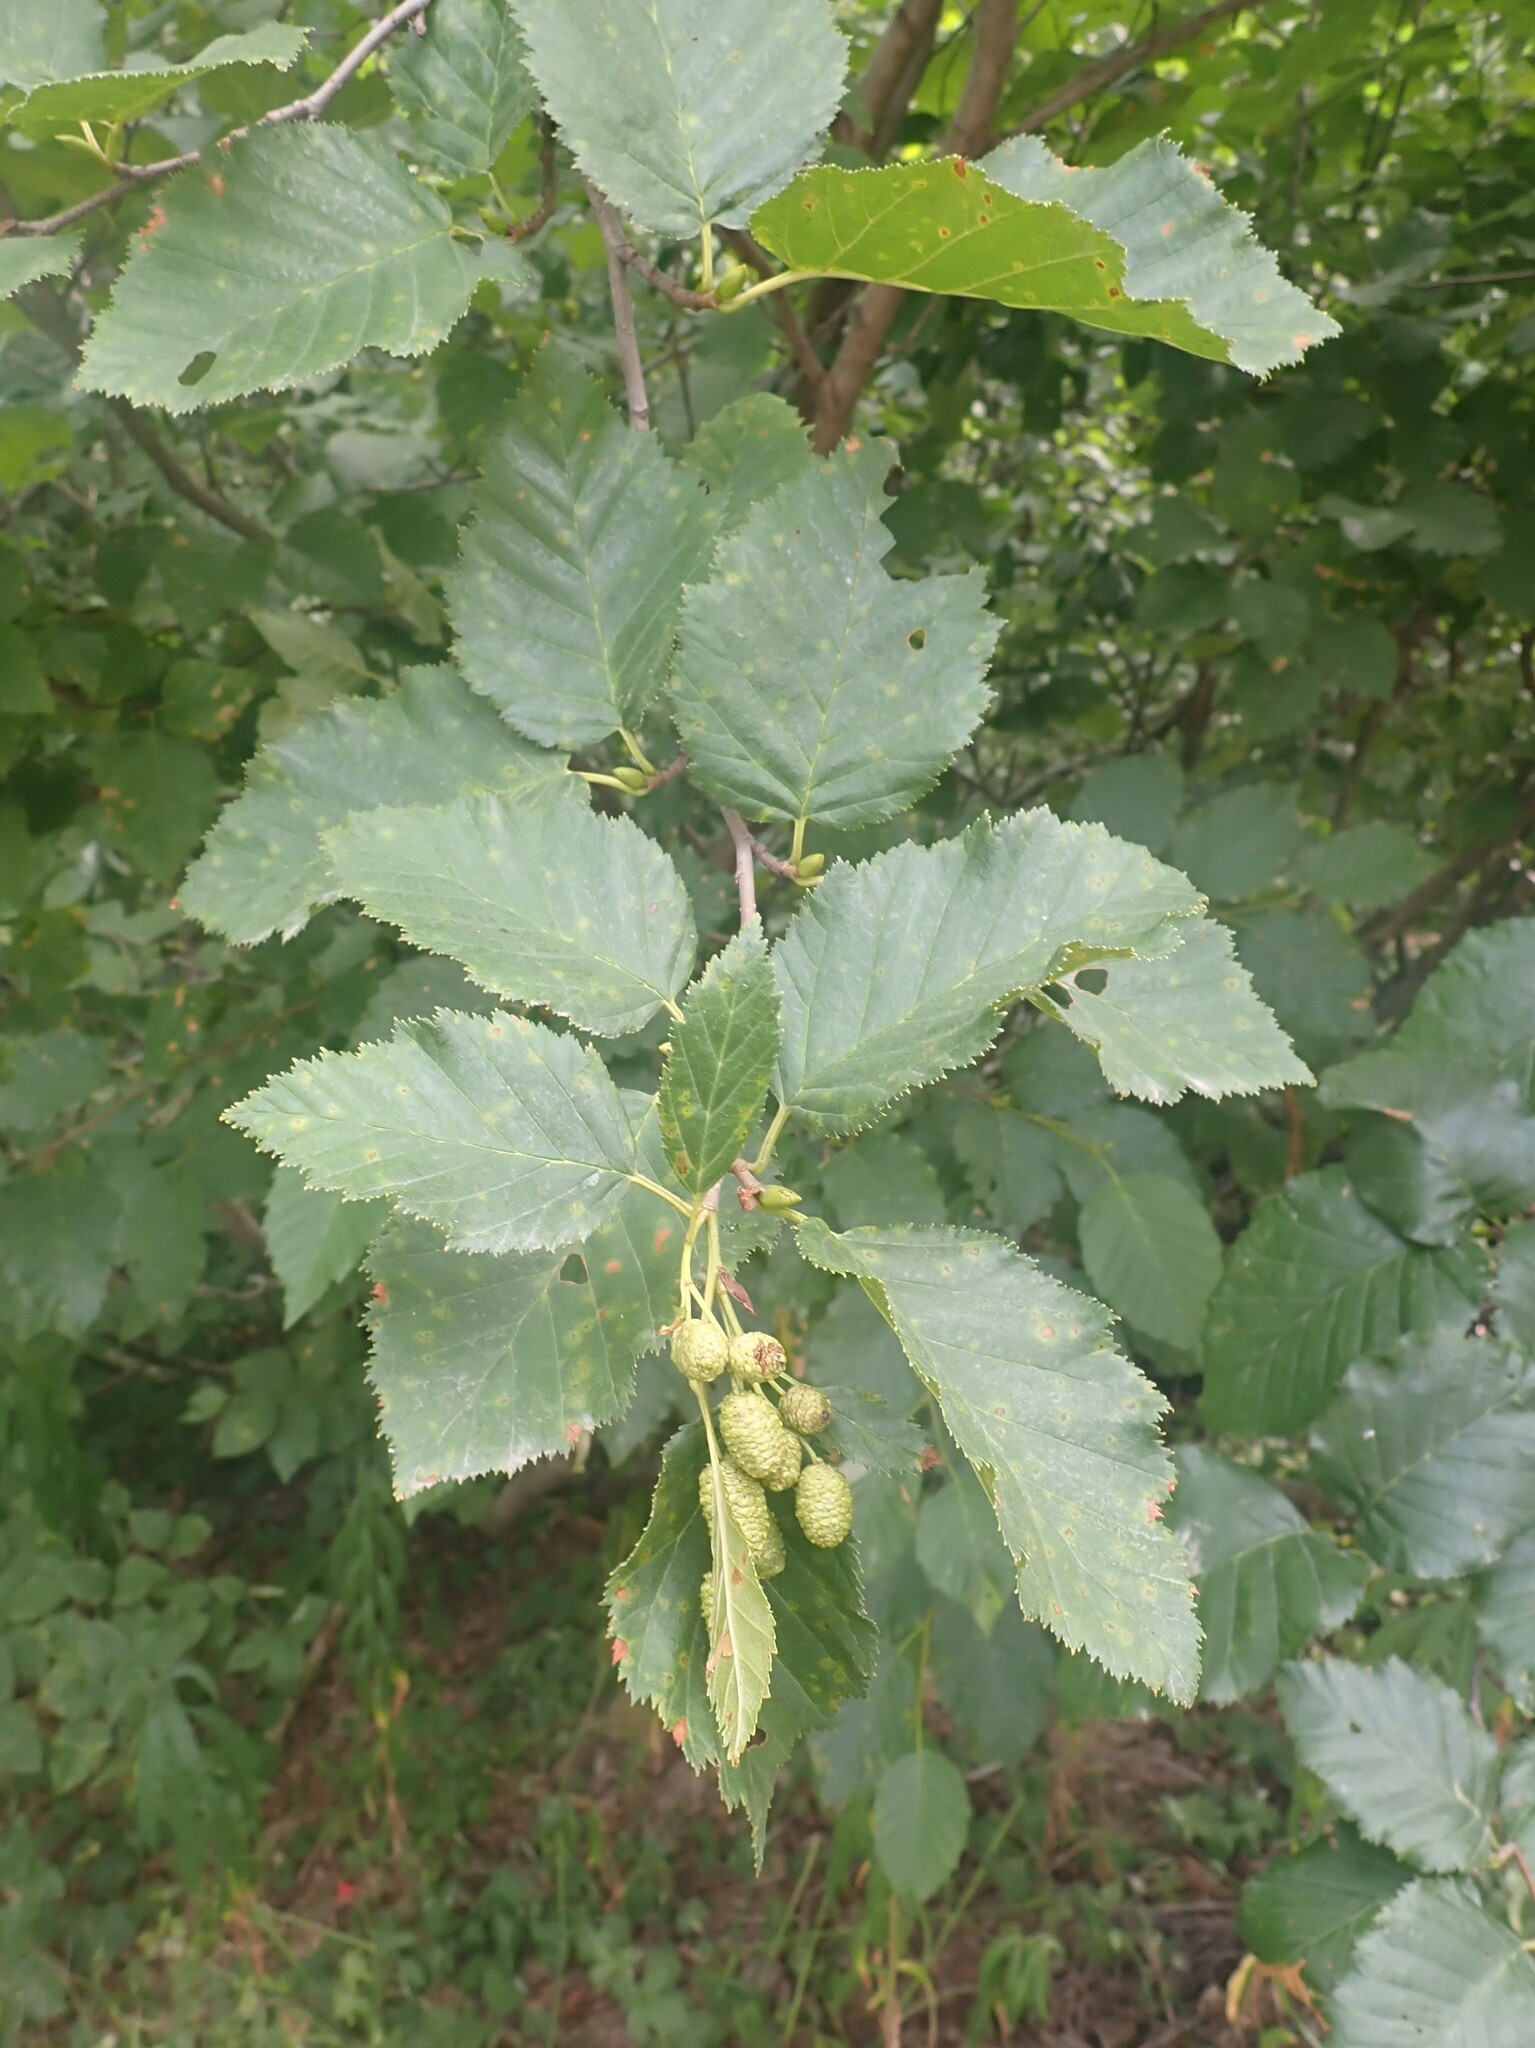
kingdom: Plantae
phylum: Tracheophyta
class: Magnoliopsida
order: Fagales
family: Betulaceae
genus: Alnus
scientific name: Alnus alnobetula
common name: Green alder
